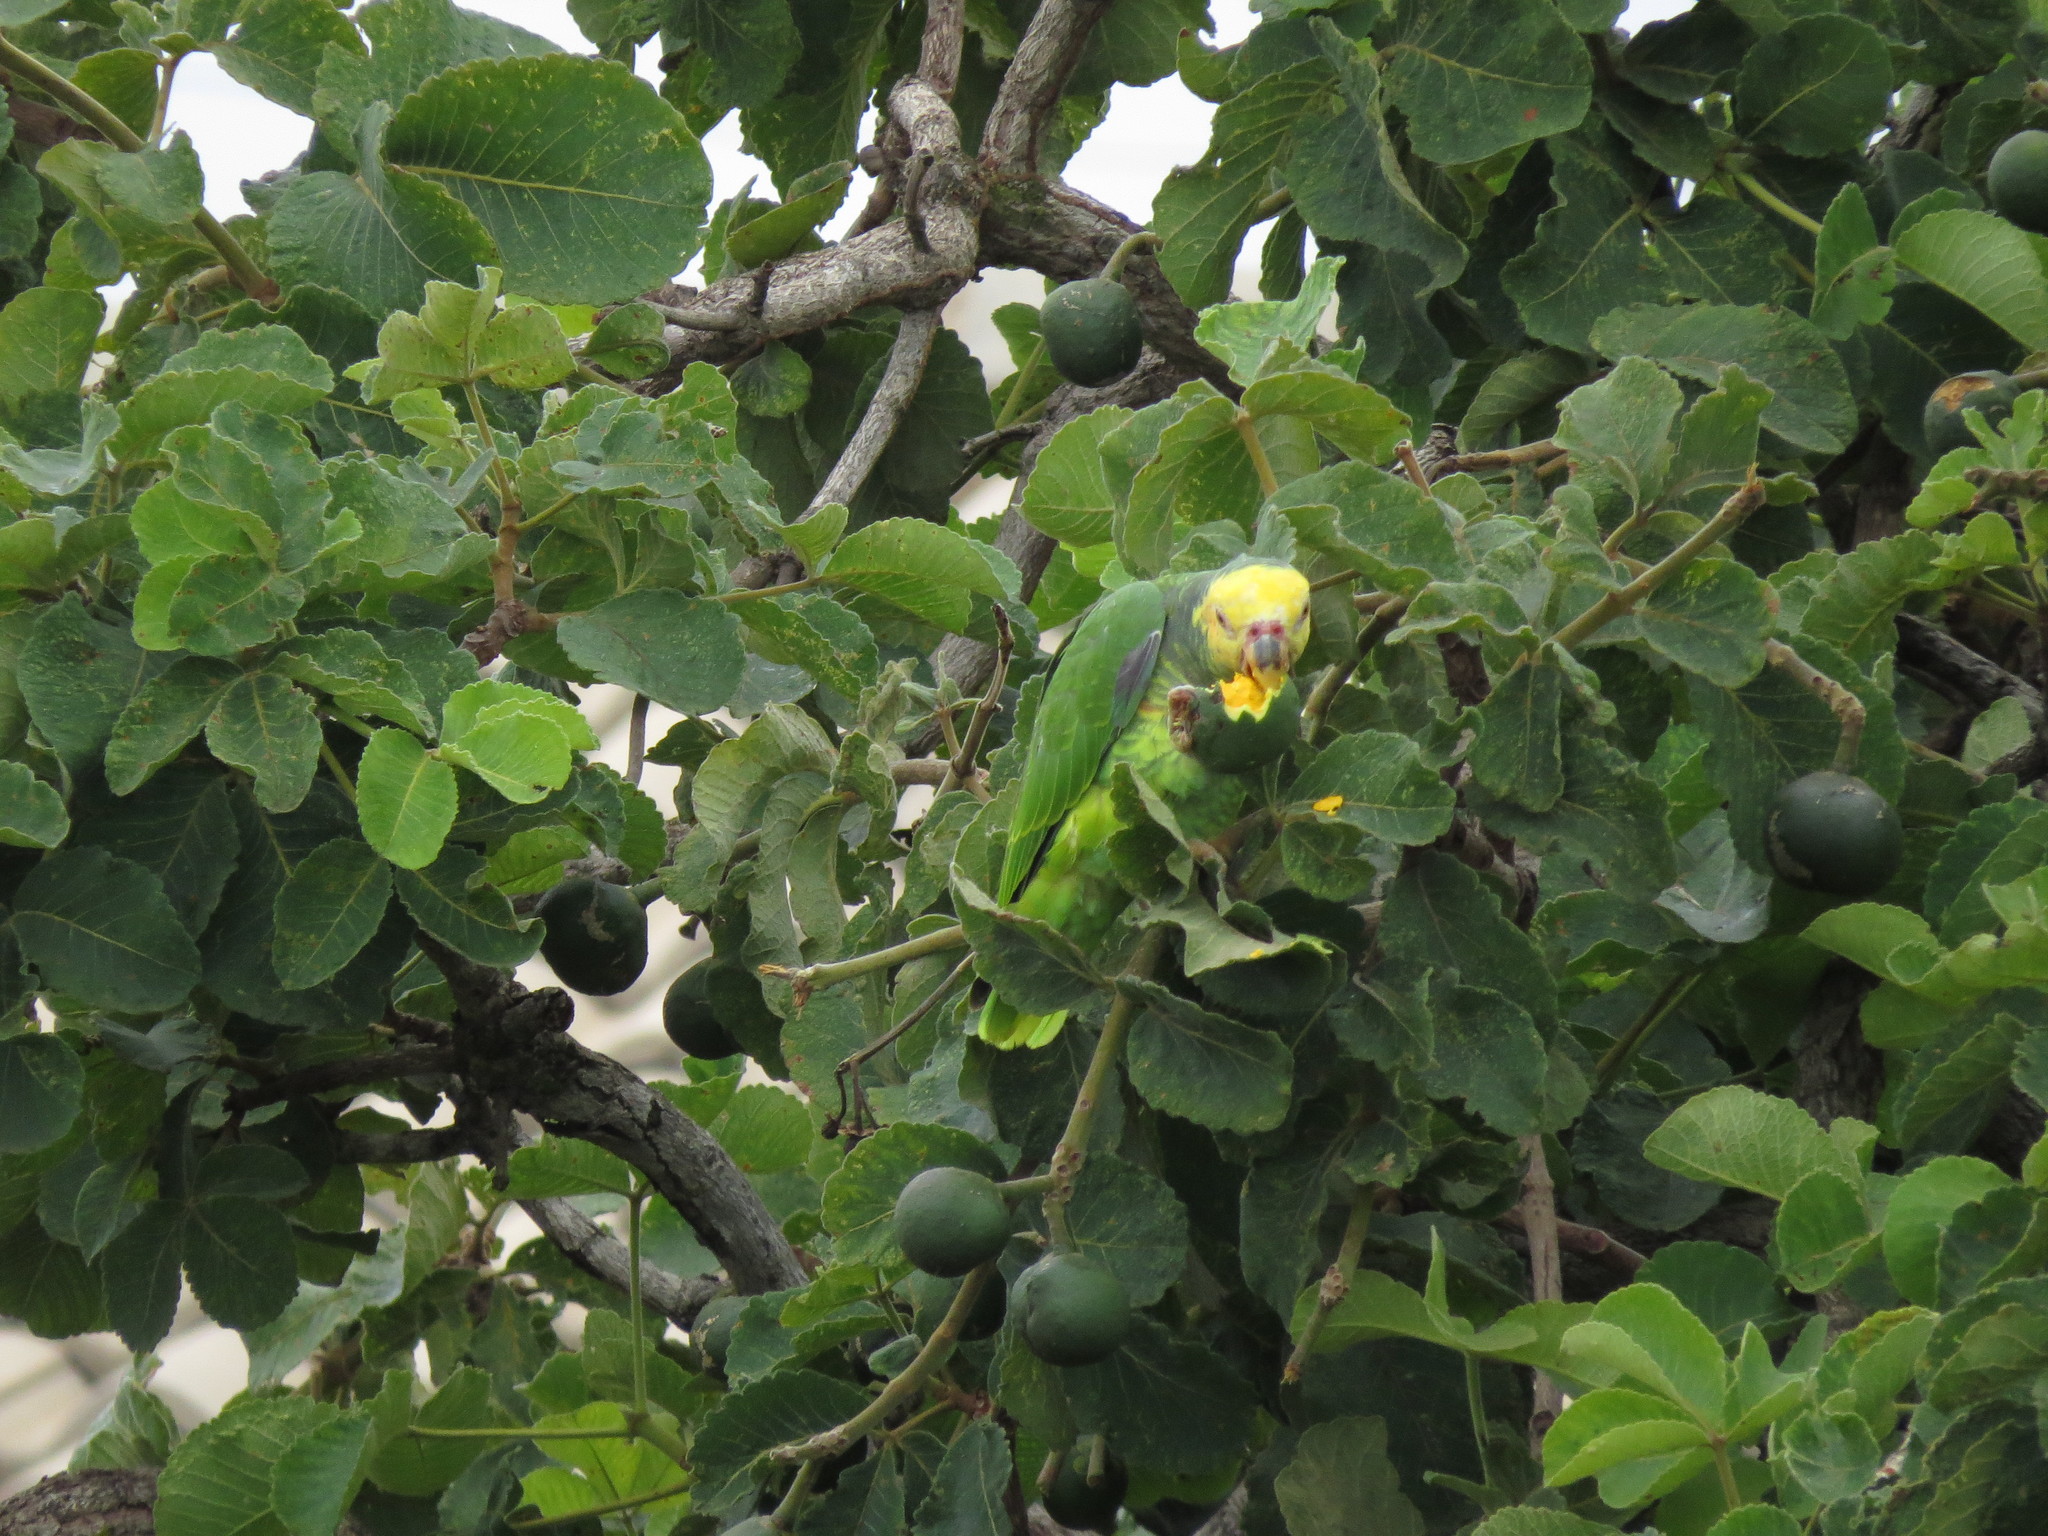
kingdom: Plantae
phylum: Tracheophyta
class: Magnoliopsida
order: Malpighiales
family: Caryocaraceae
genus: Caryocar
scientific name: Caryocar brasiliense
